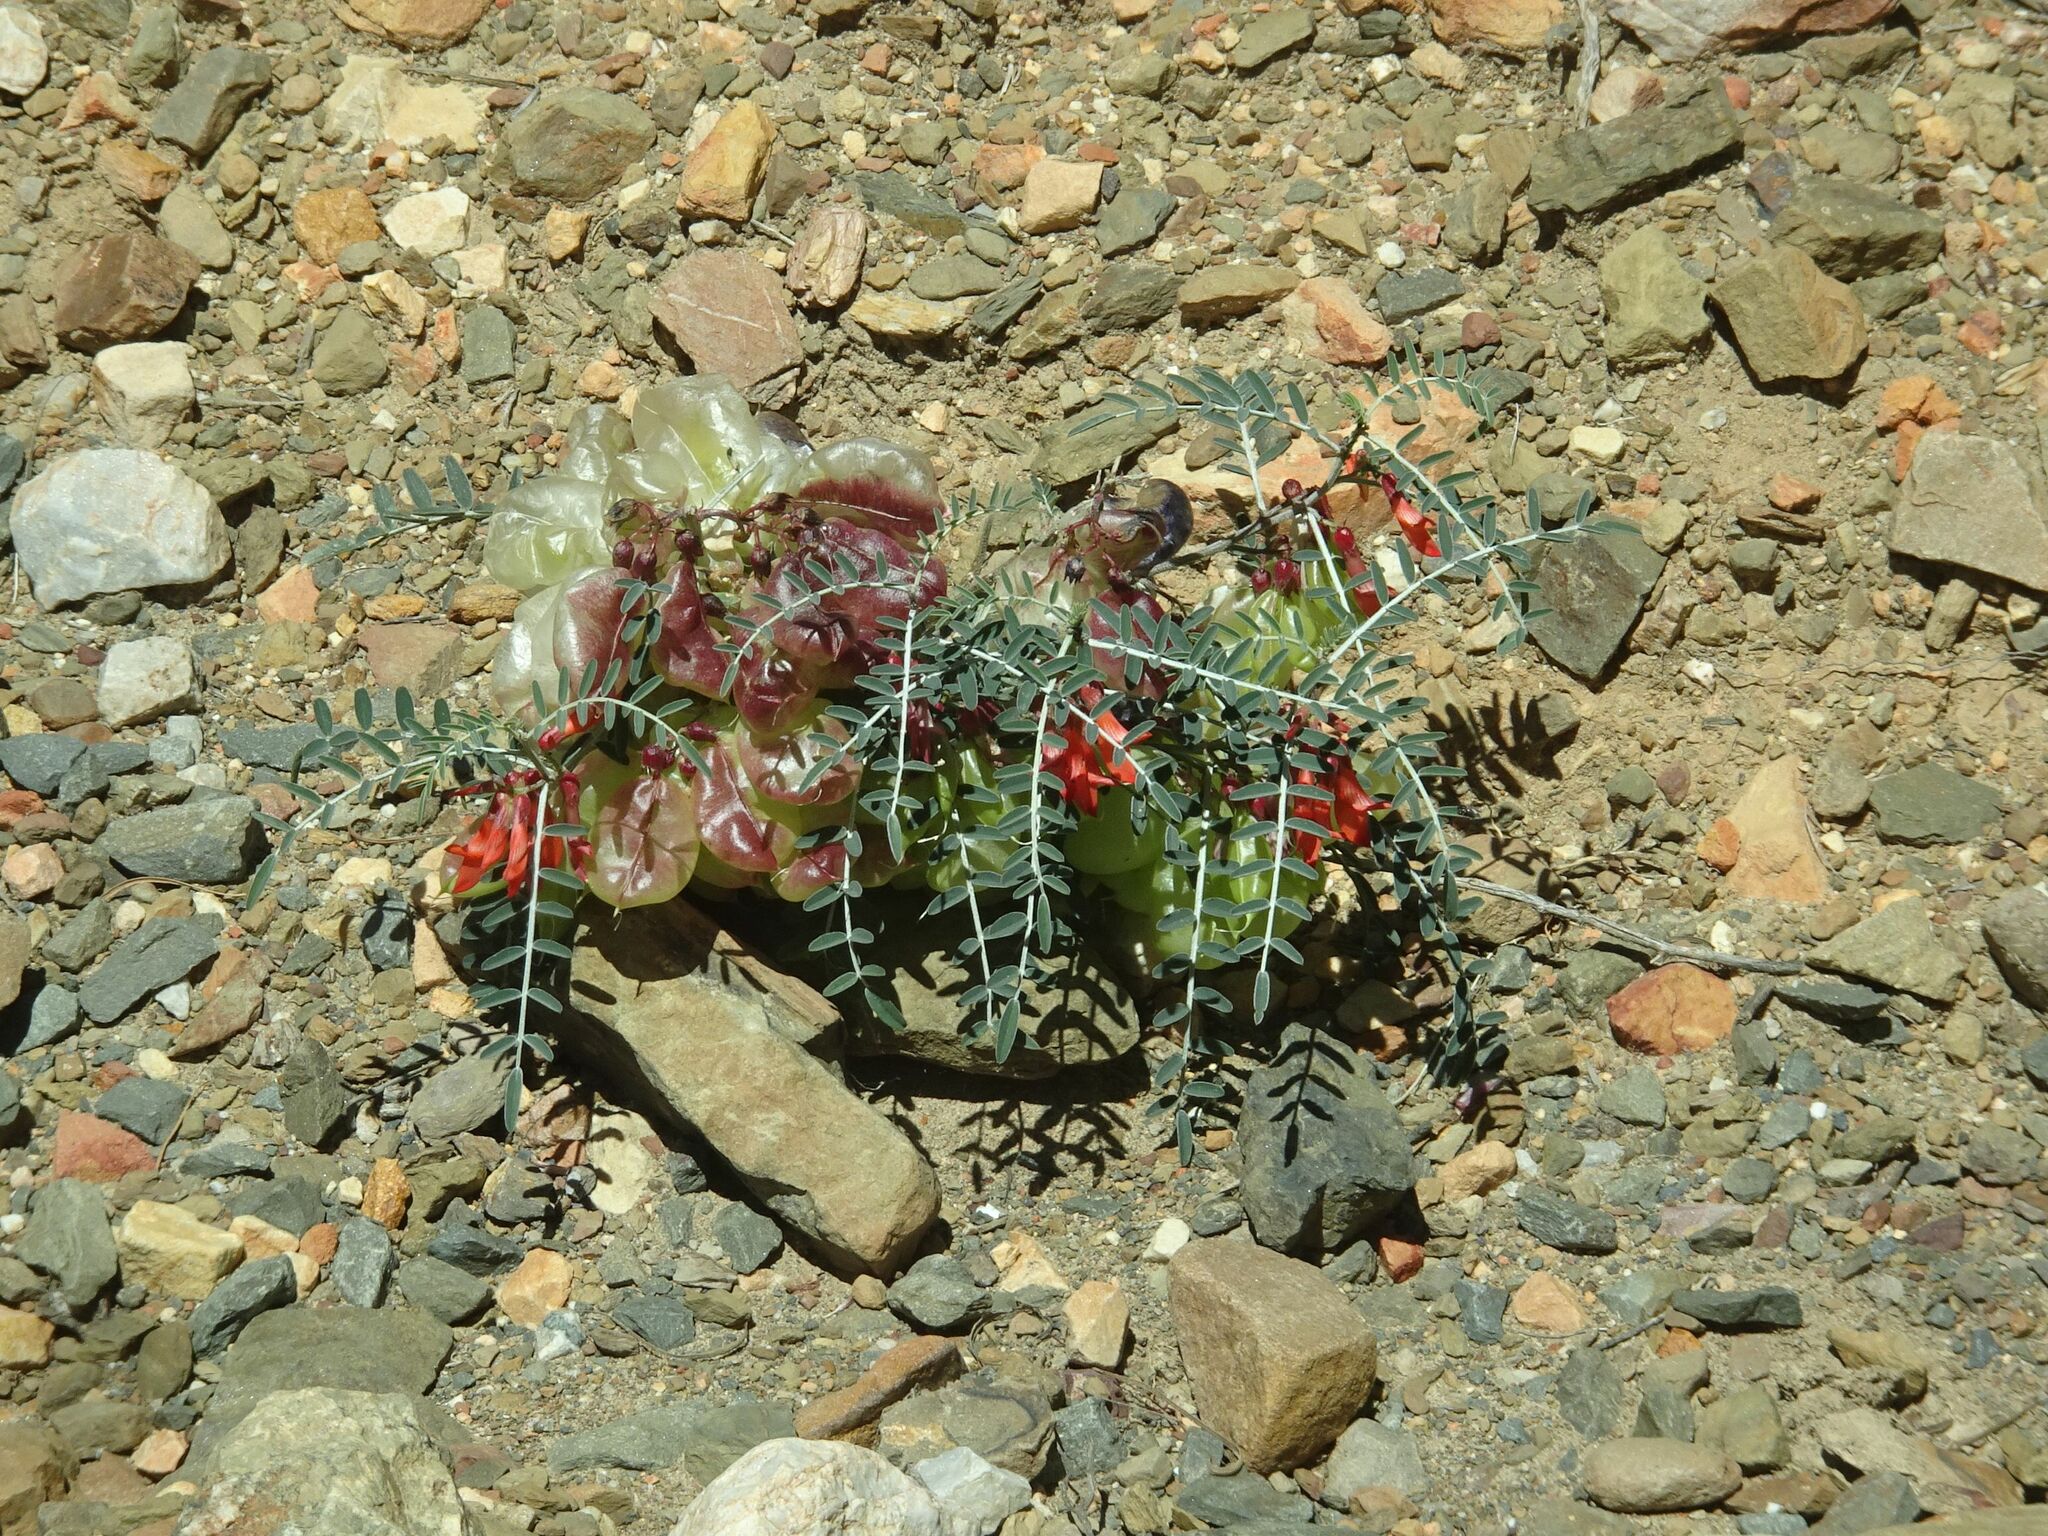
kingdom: Plantae
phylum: Tracheophyta
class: Magnoliopsida
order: Fabales
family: Fabaceae
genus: Lessertia
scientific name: Lessertia frutescens
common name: Balloon-pea
